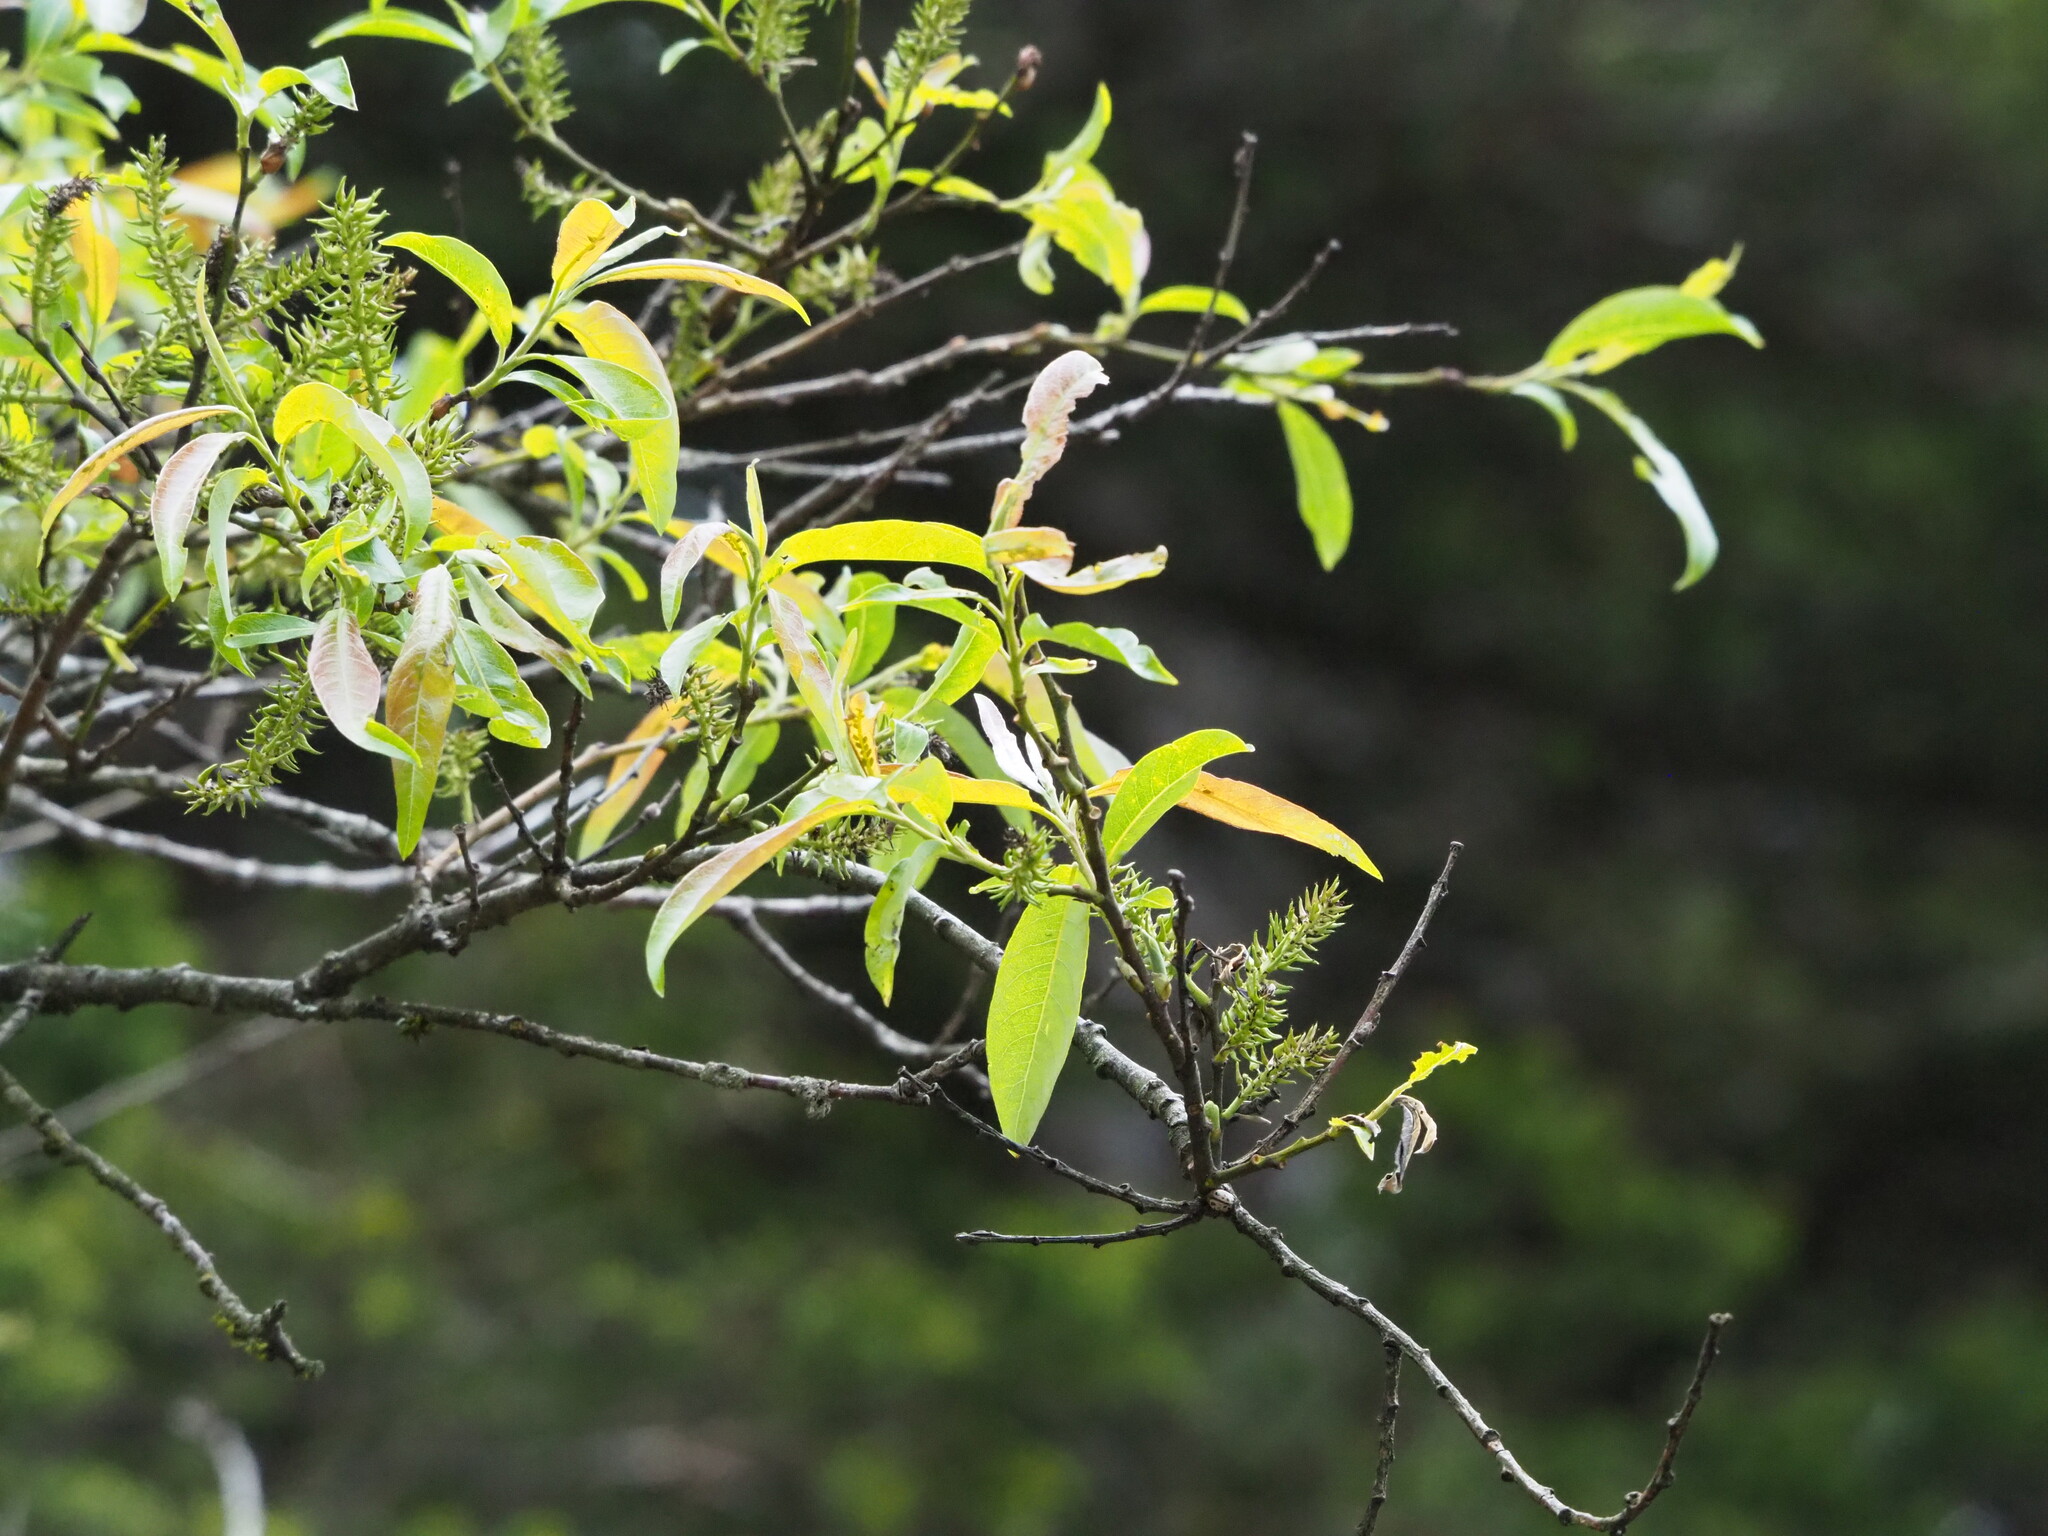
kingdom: Plantae
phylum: Tracheophyta
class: Magnoliopsida
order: Malpighiales
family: Salicaceae
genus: Salix
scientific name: Salix fulvopubescens
